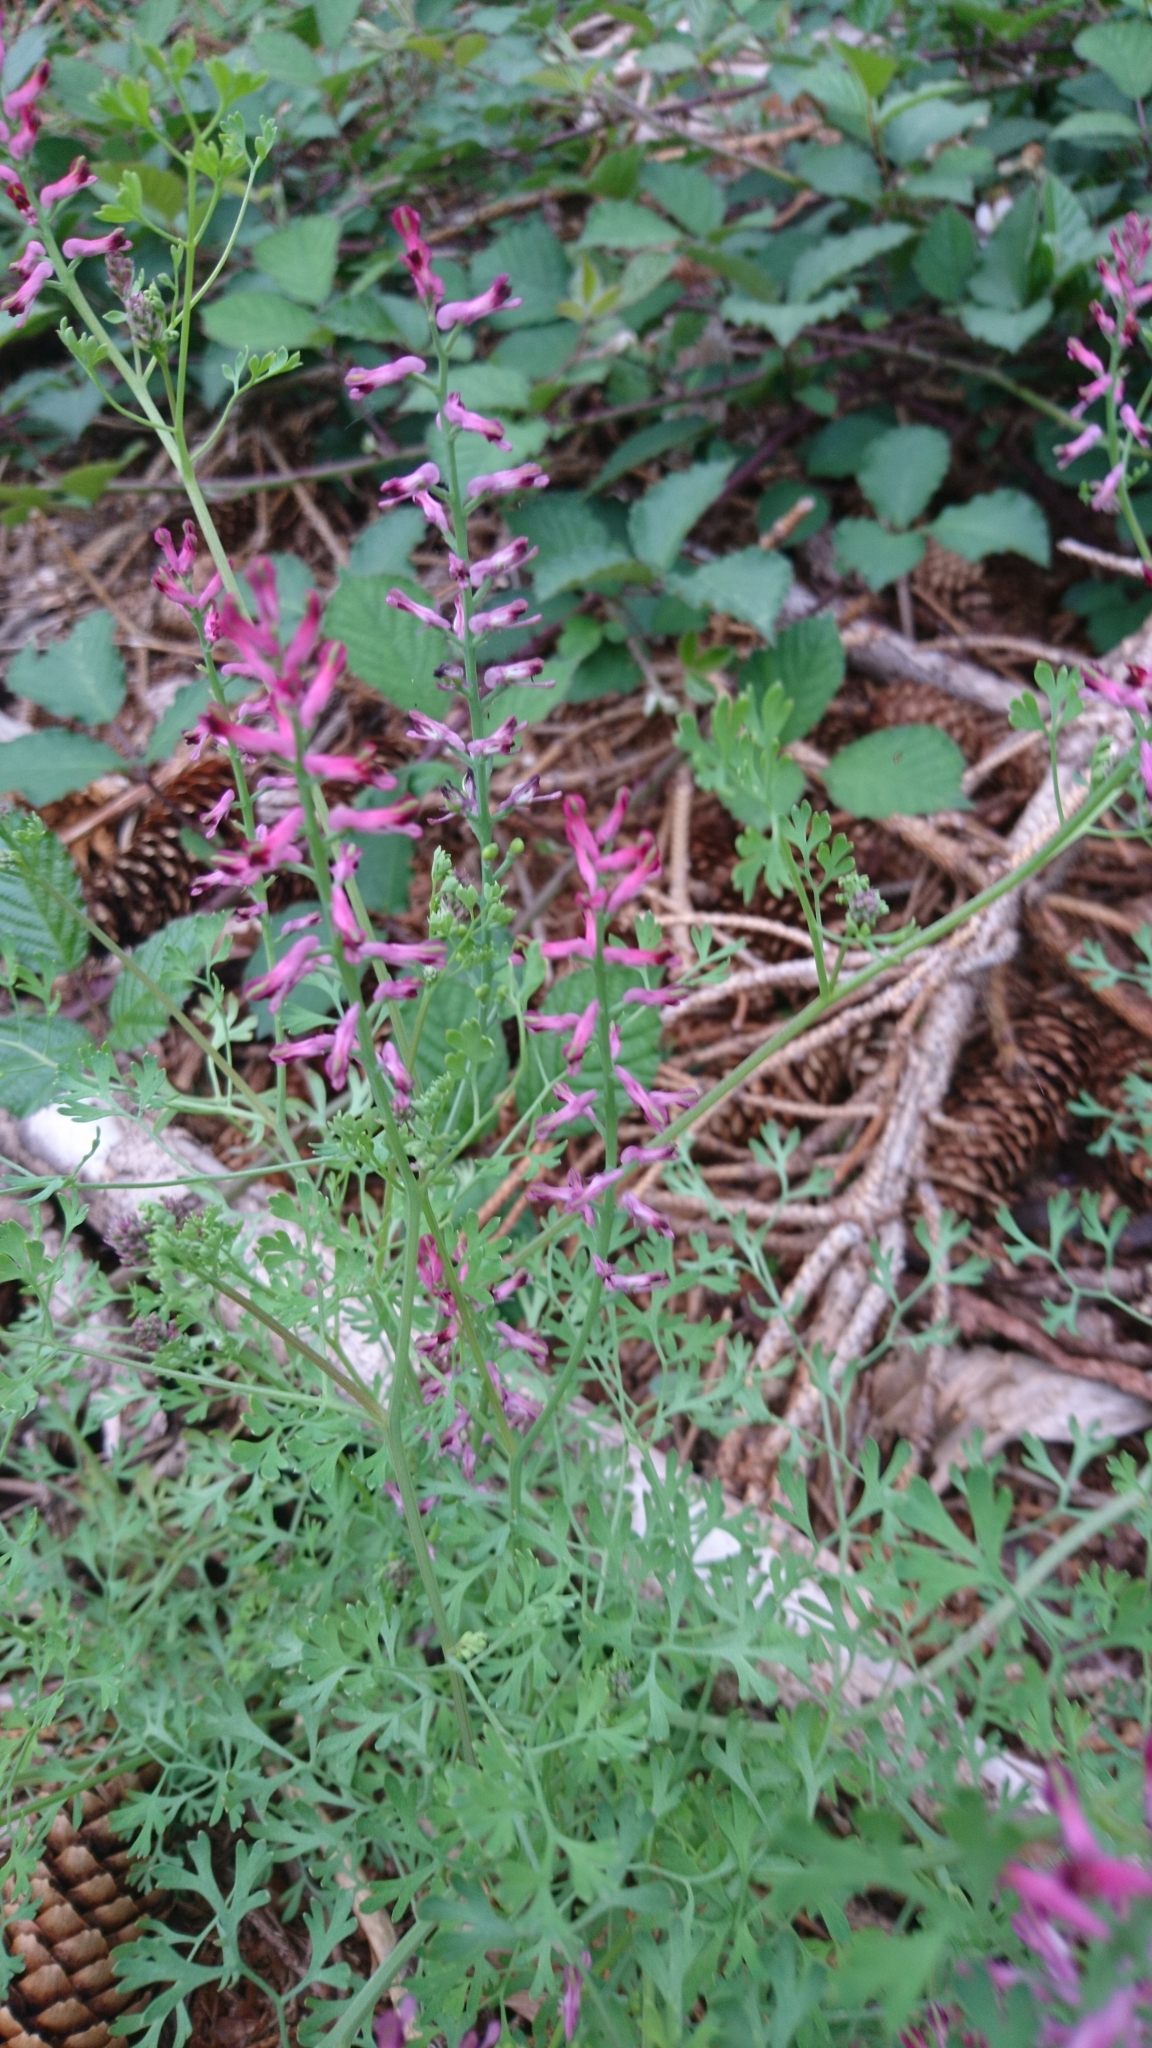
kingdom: Plantae
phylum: Tracheophyta
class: Magnoliopsida
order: Ranunculales
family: Papaveraceae
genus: Fumaria
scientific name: Fumaria officinalis
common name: Common fumitory
